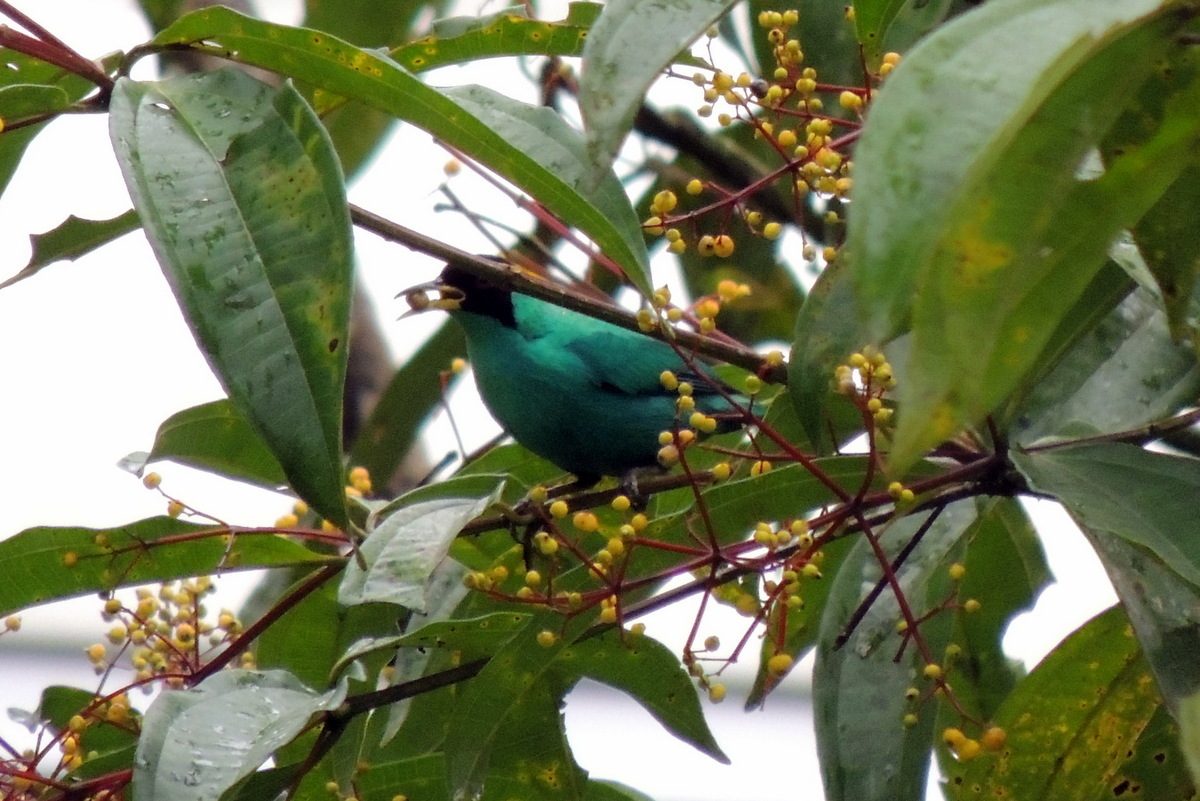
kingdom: Animalia
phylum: Chordata
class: Aves
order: Passeriformes
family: Thraupidae
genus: Chlorophanes
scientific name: Chlorophanes spiza
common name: Green honeycreeper
